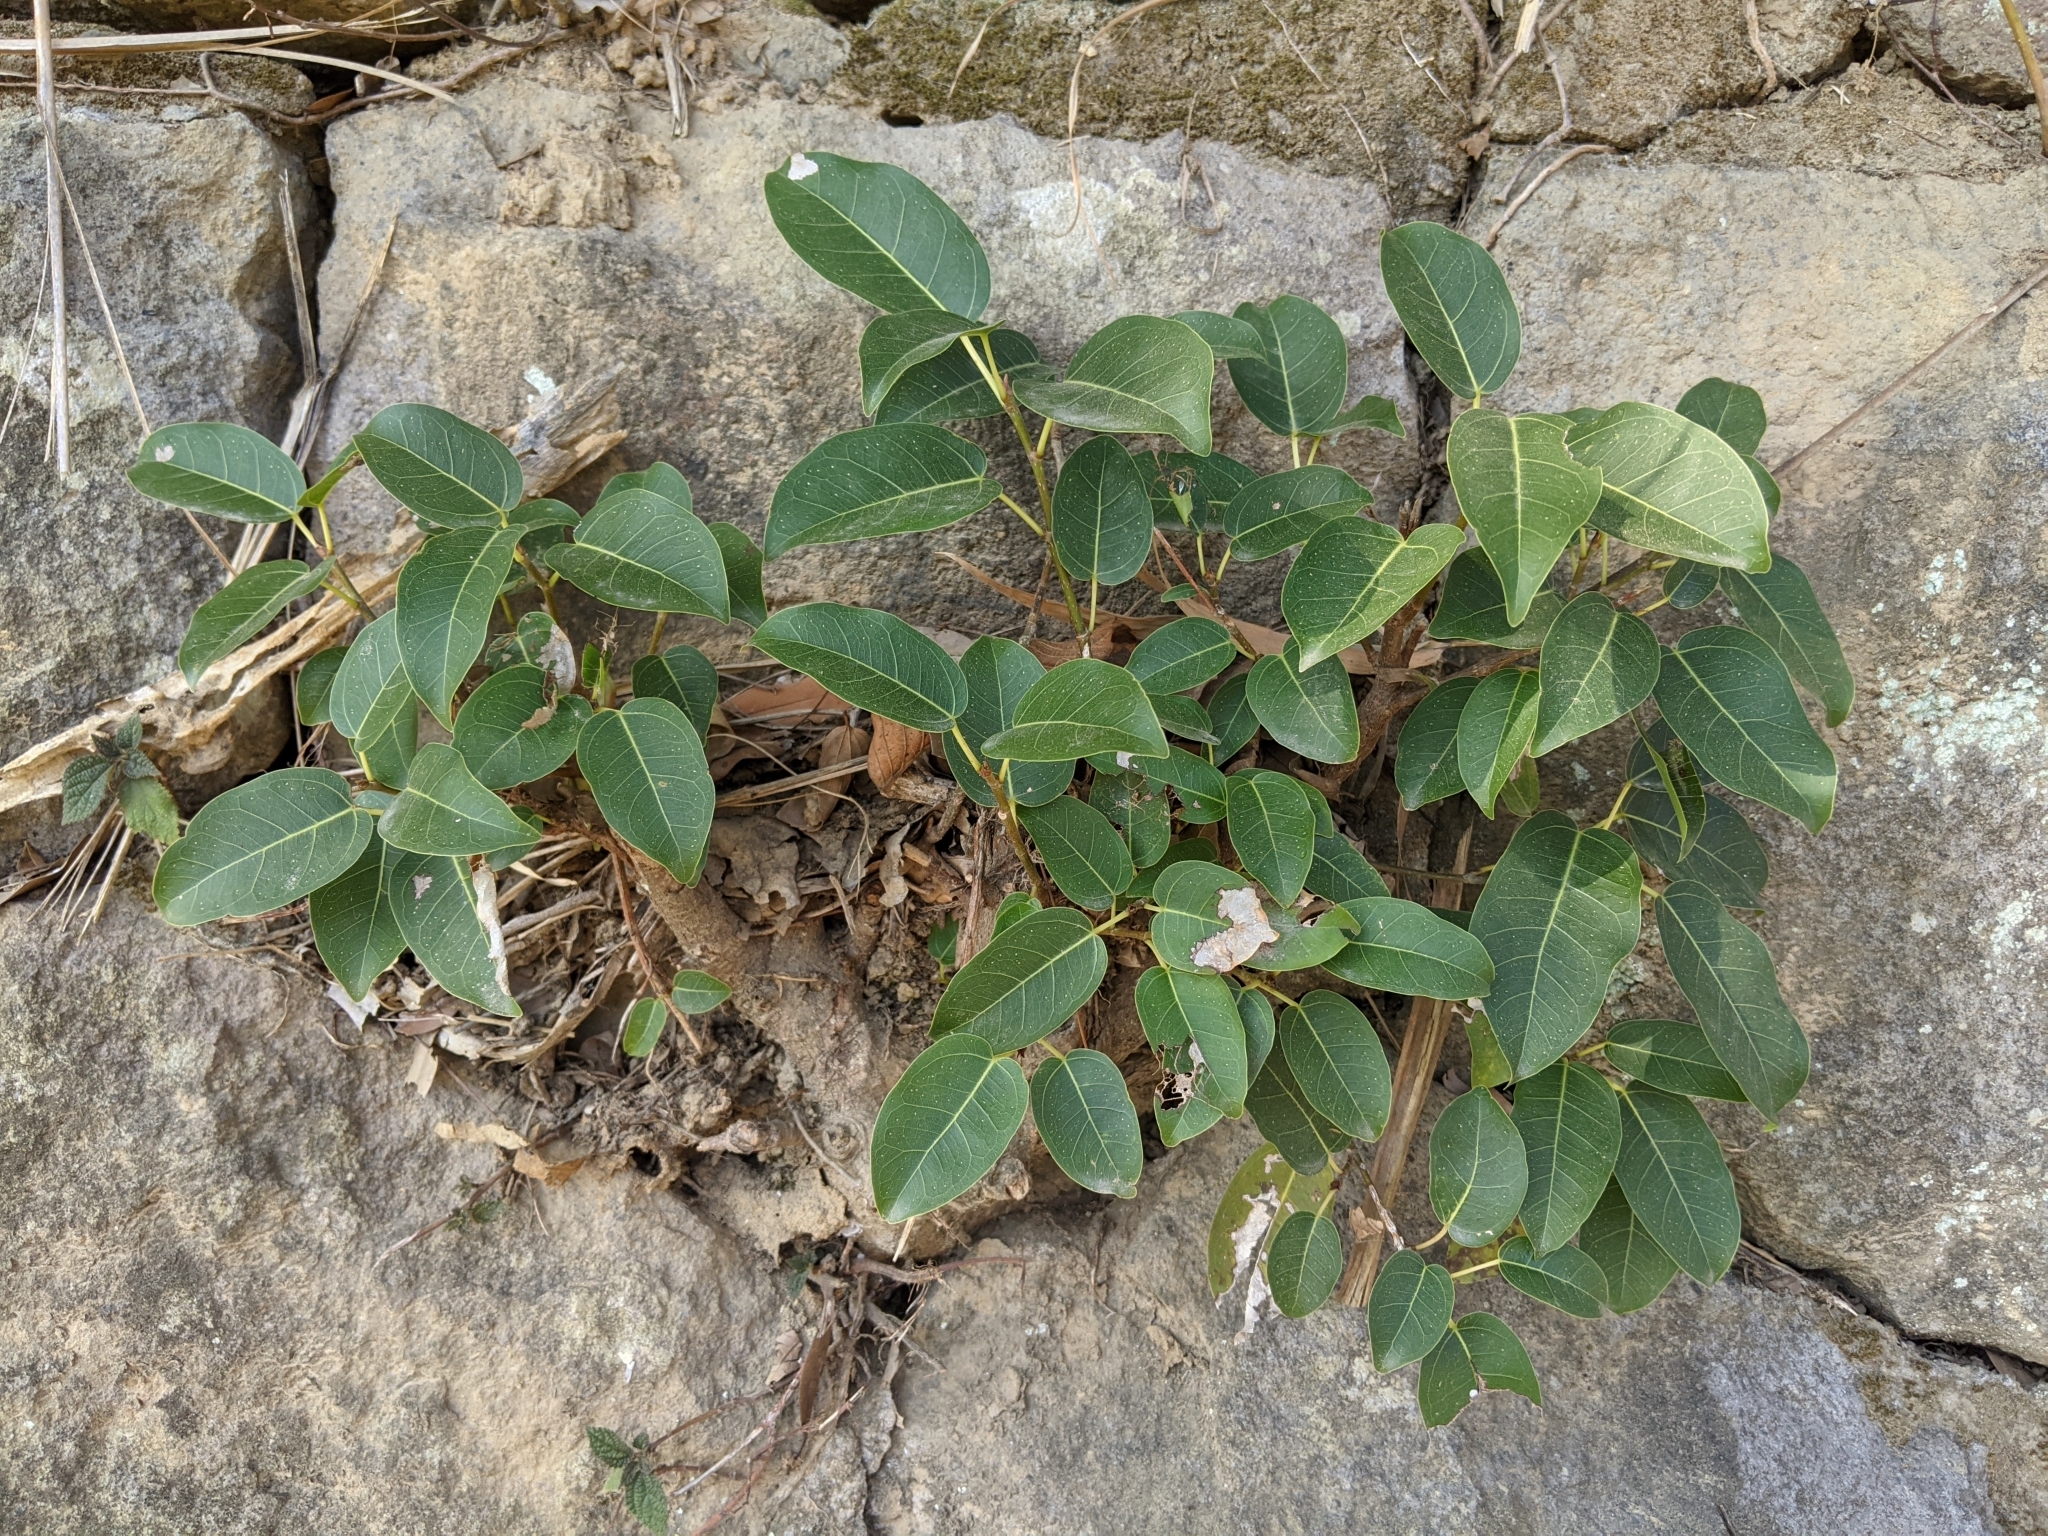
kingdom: Plantae
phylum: Tracheophyta
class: Magnoliopsida
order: Rosales
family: Moraceae
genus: Ficus
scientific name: Ficus subpisocarpa
